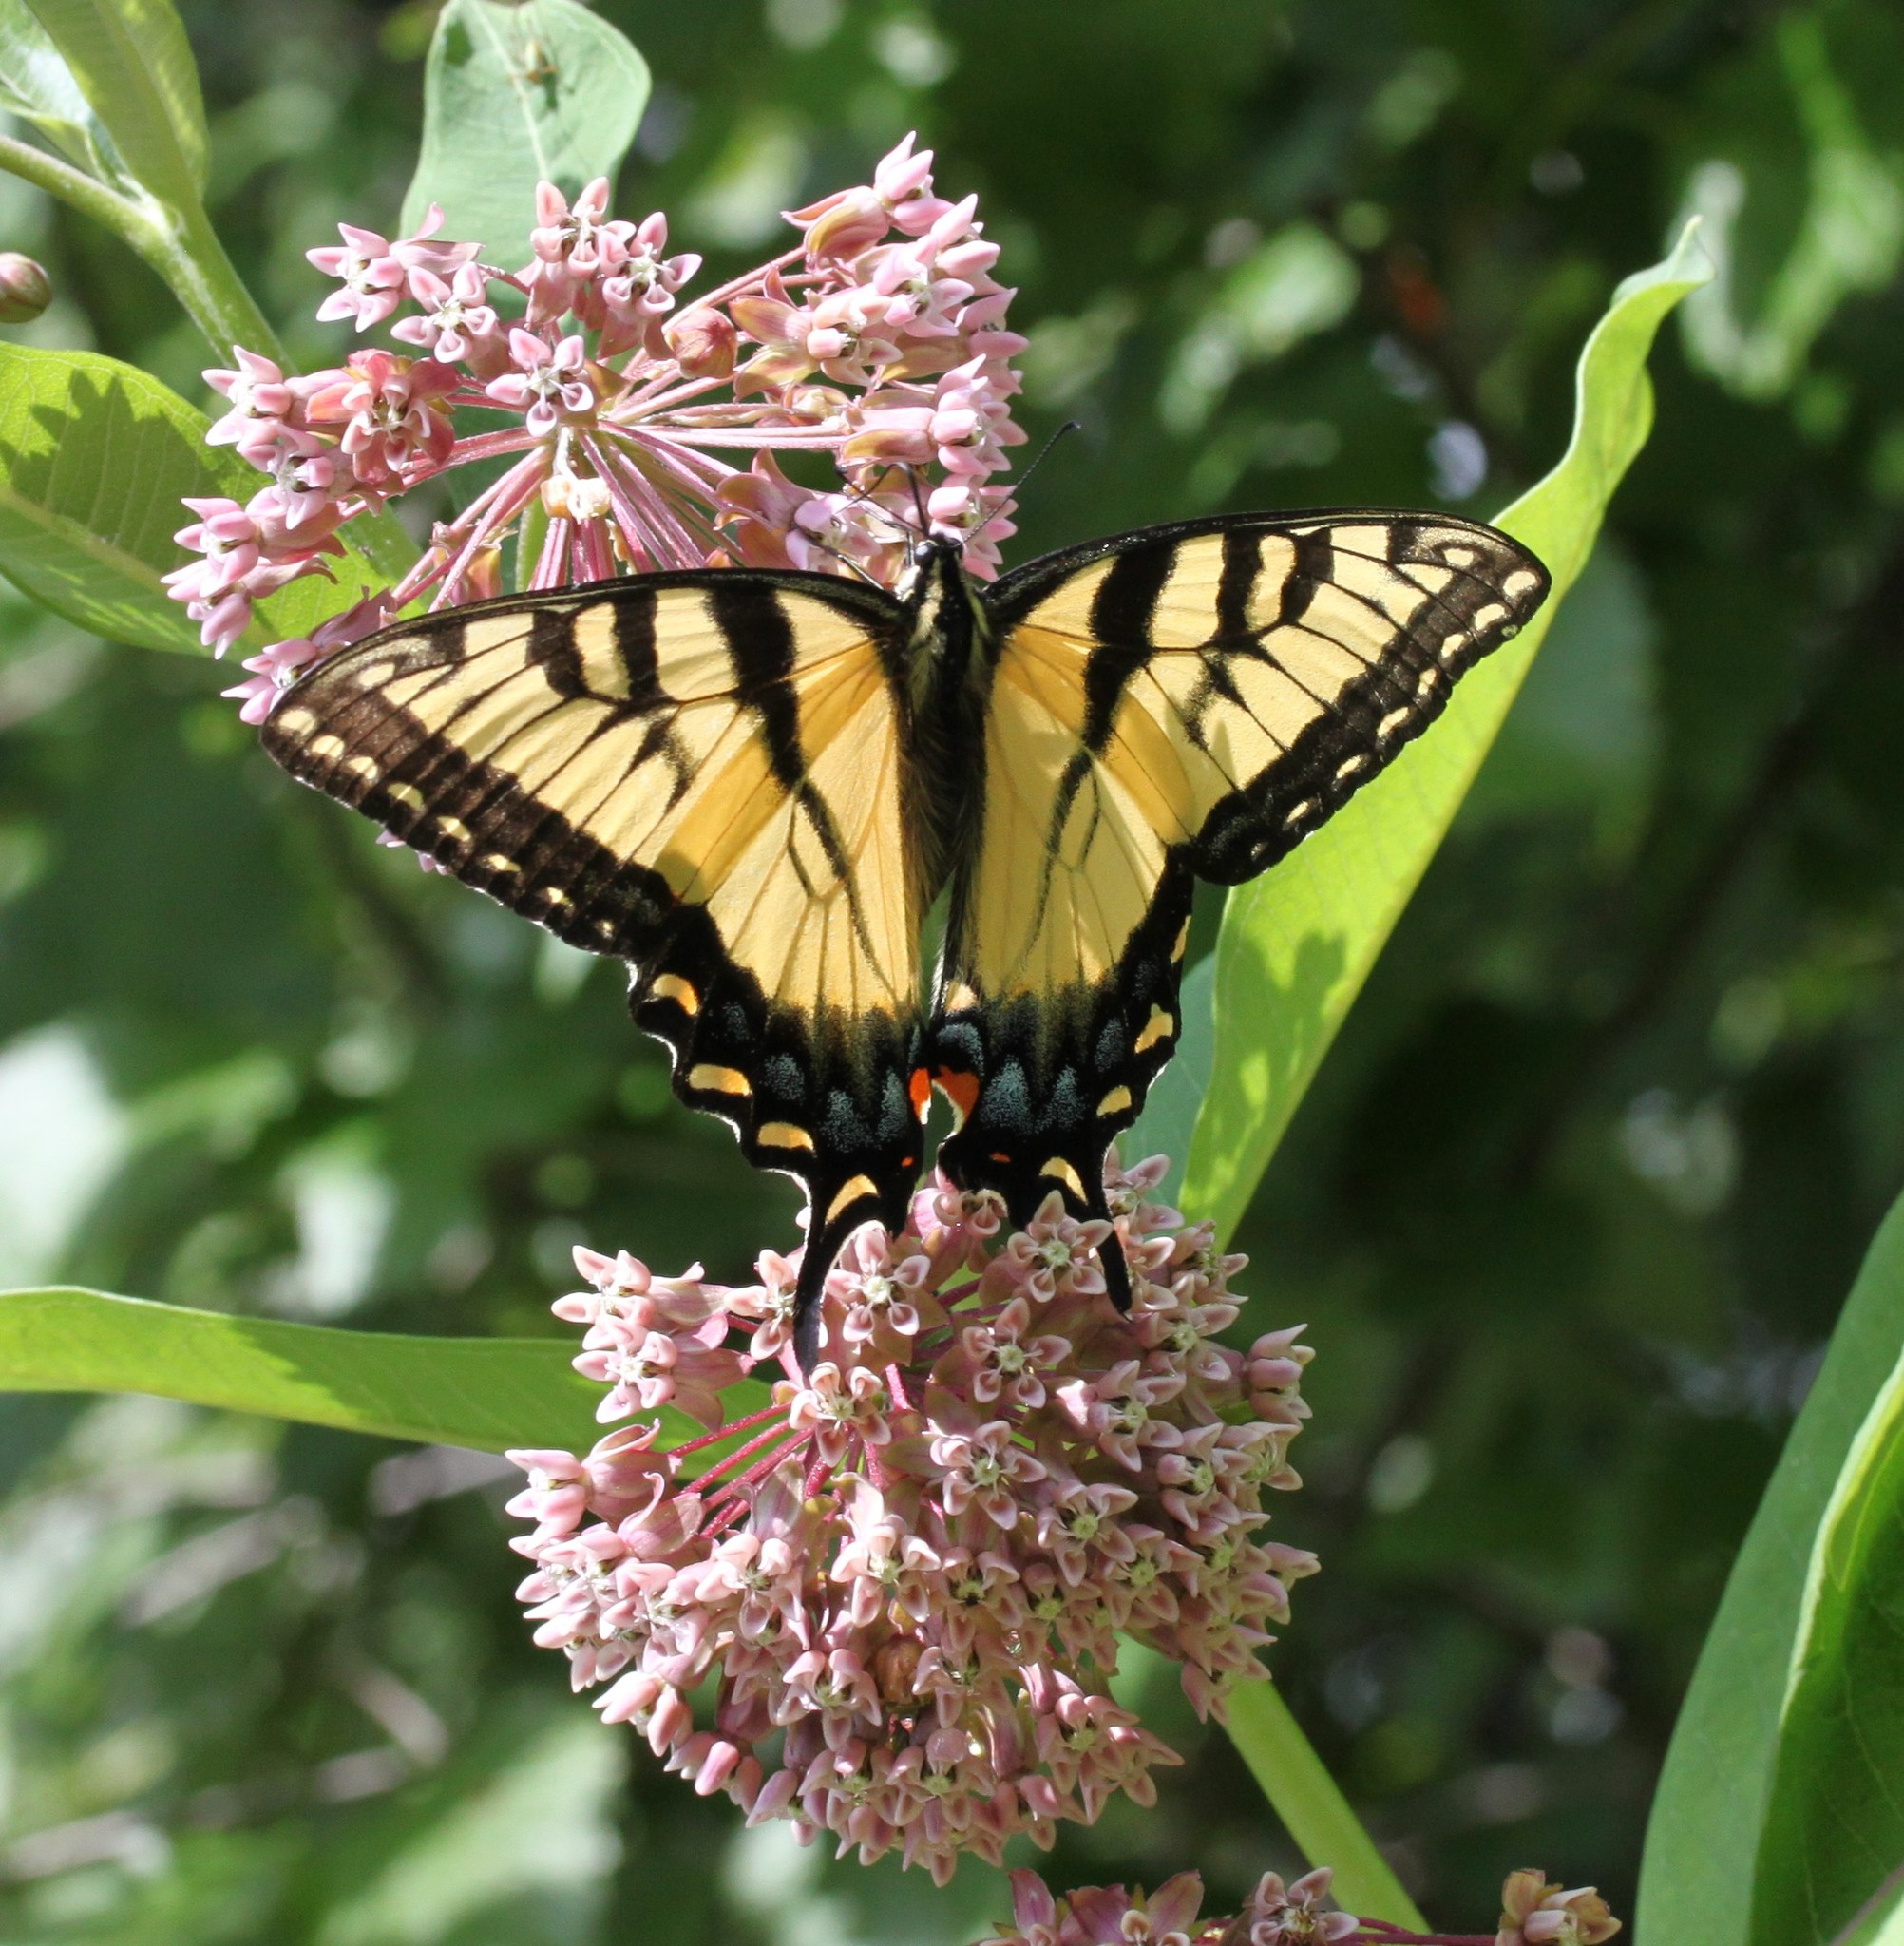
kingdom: Animalia
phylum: Arthropoda
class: Insecta
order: Lepidoptera
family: Papilionidae
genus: Papilio
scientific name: Papilio glaucus
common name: Tiger swallowtail
